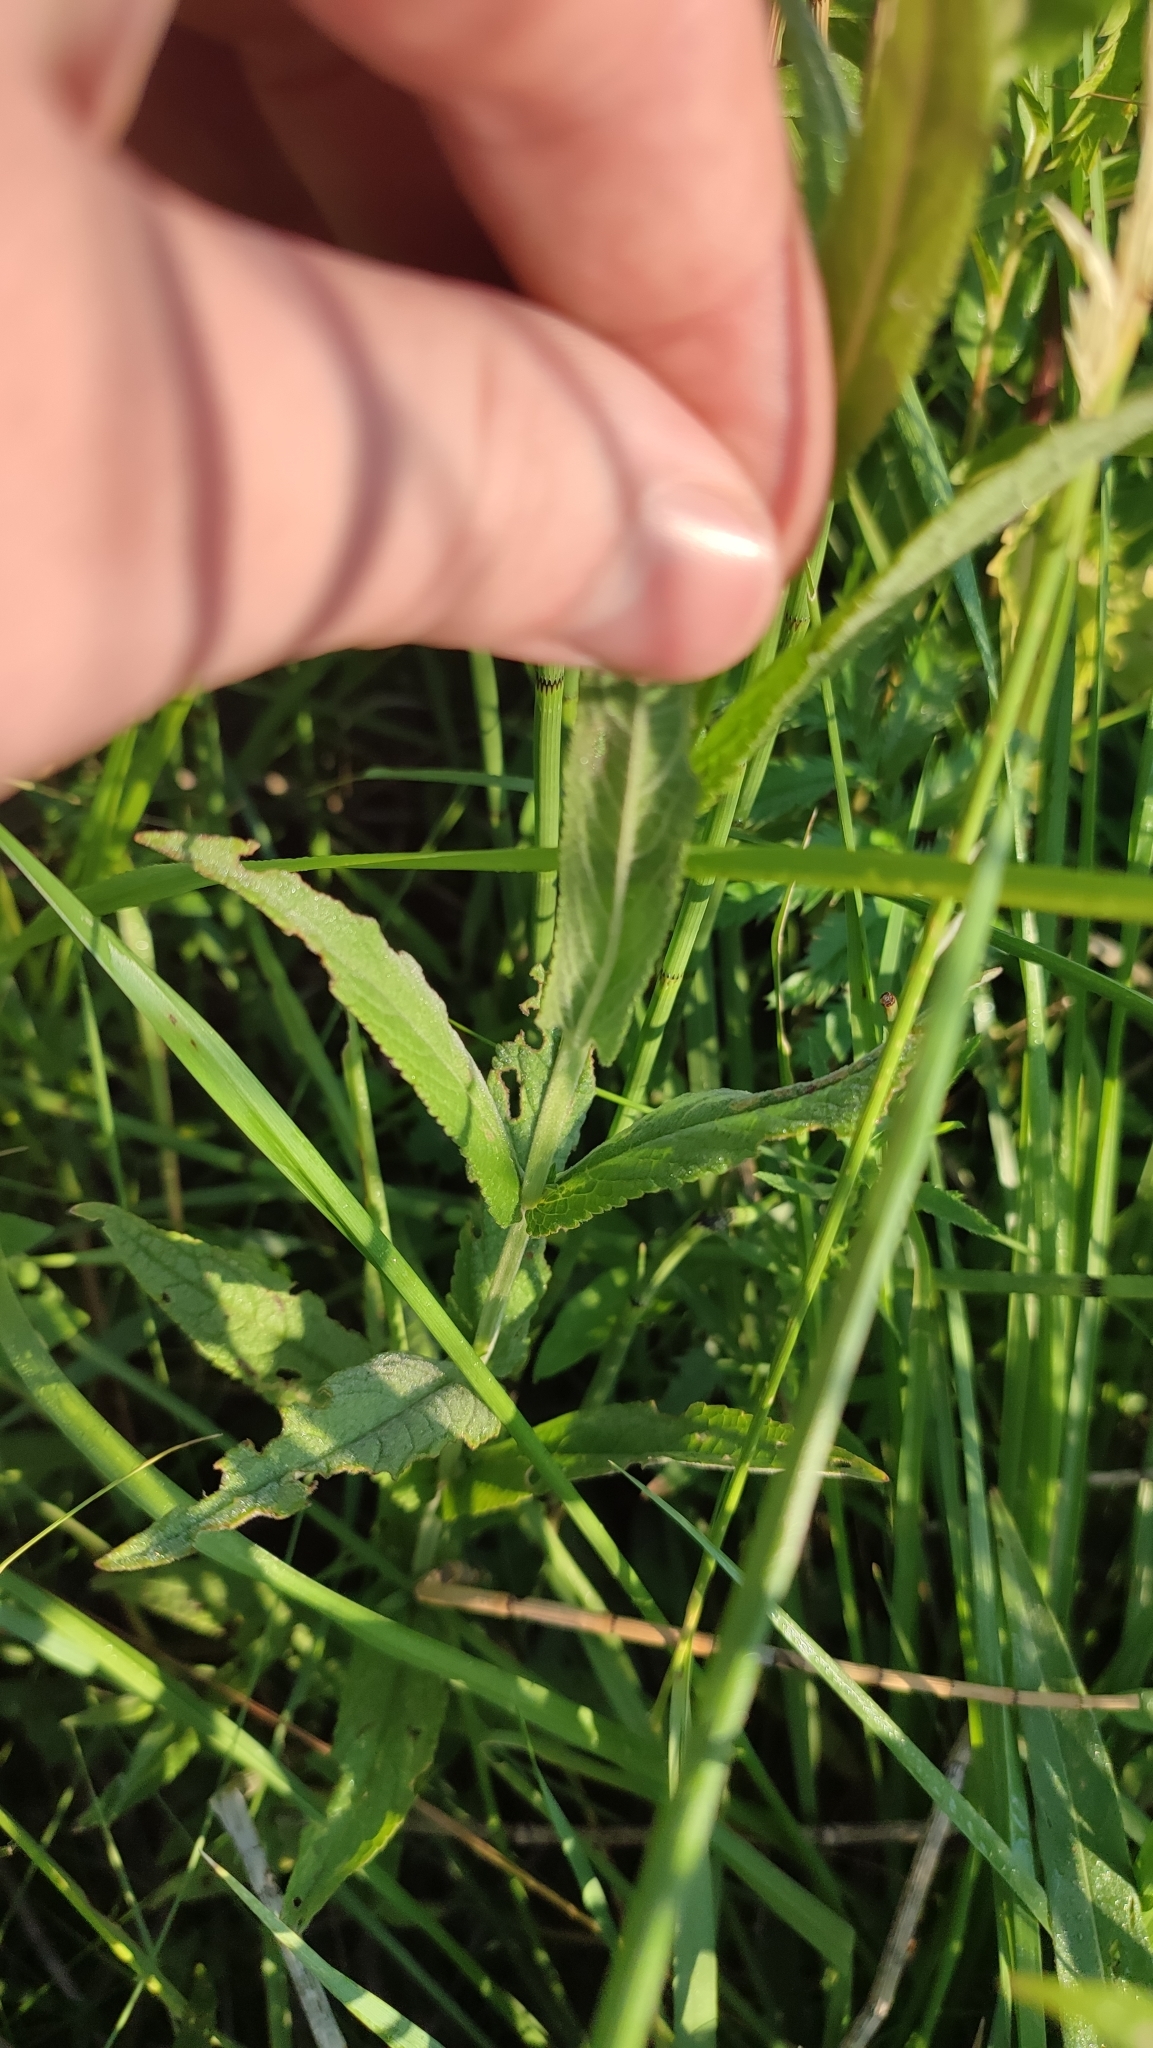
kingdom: Plantae
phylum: Tracheophyta
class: Magnoliopsida
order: Lamiales
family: Lamiaceae
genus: Stachys
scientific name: Stachys palustris
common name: Marsh woundwort
